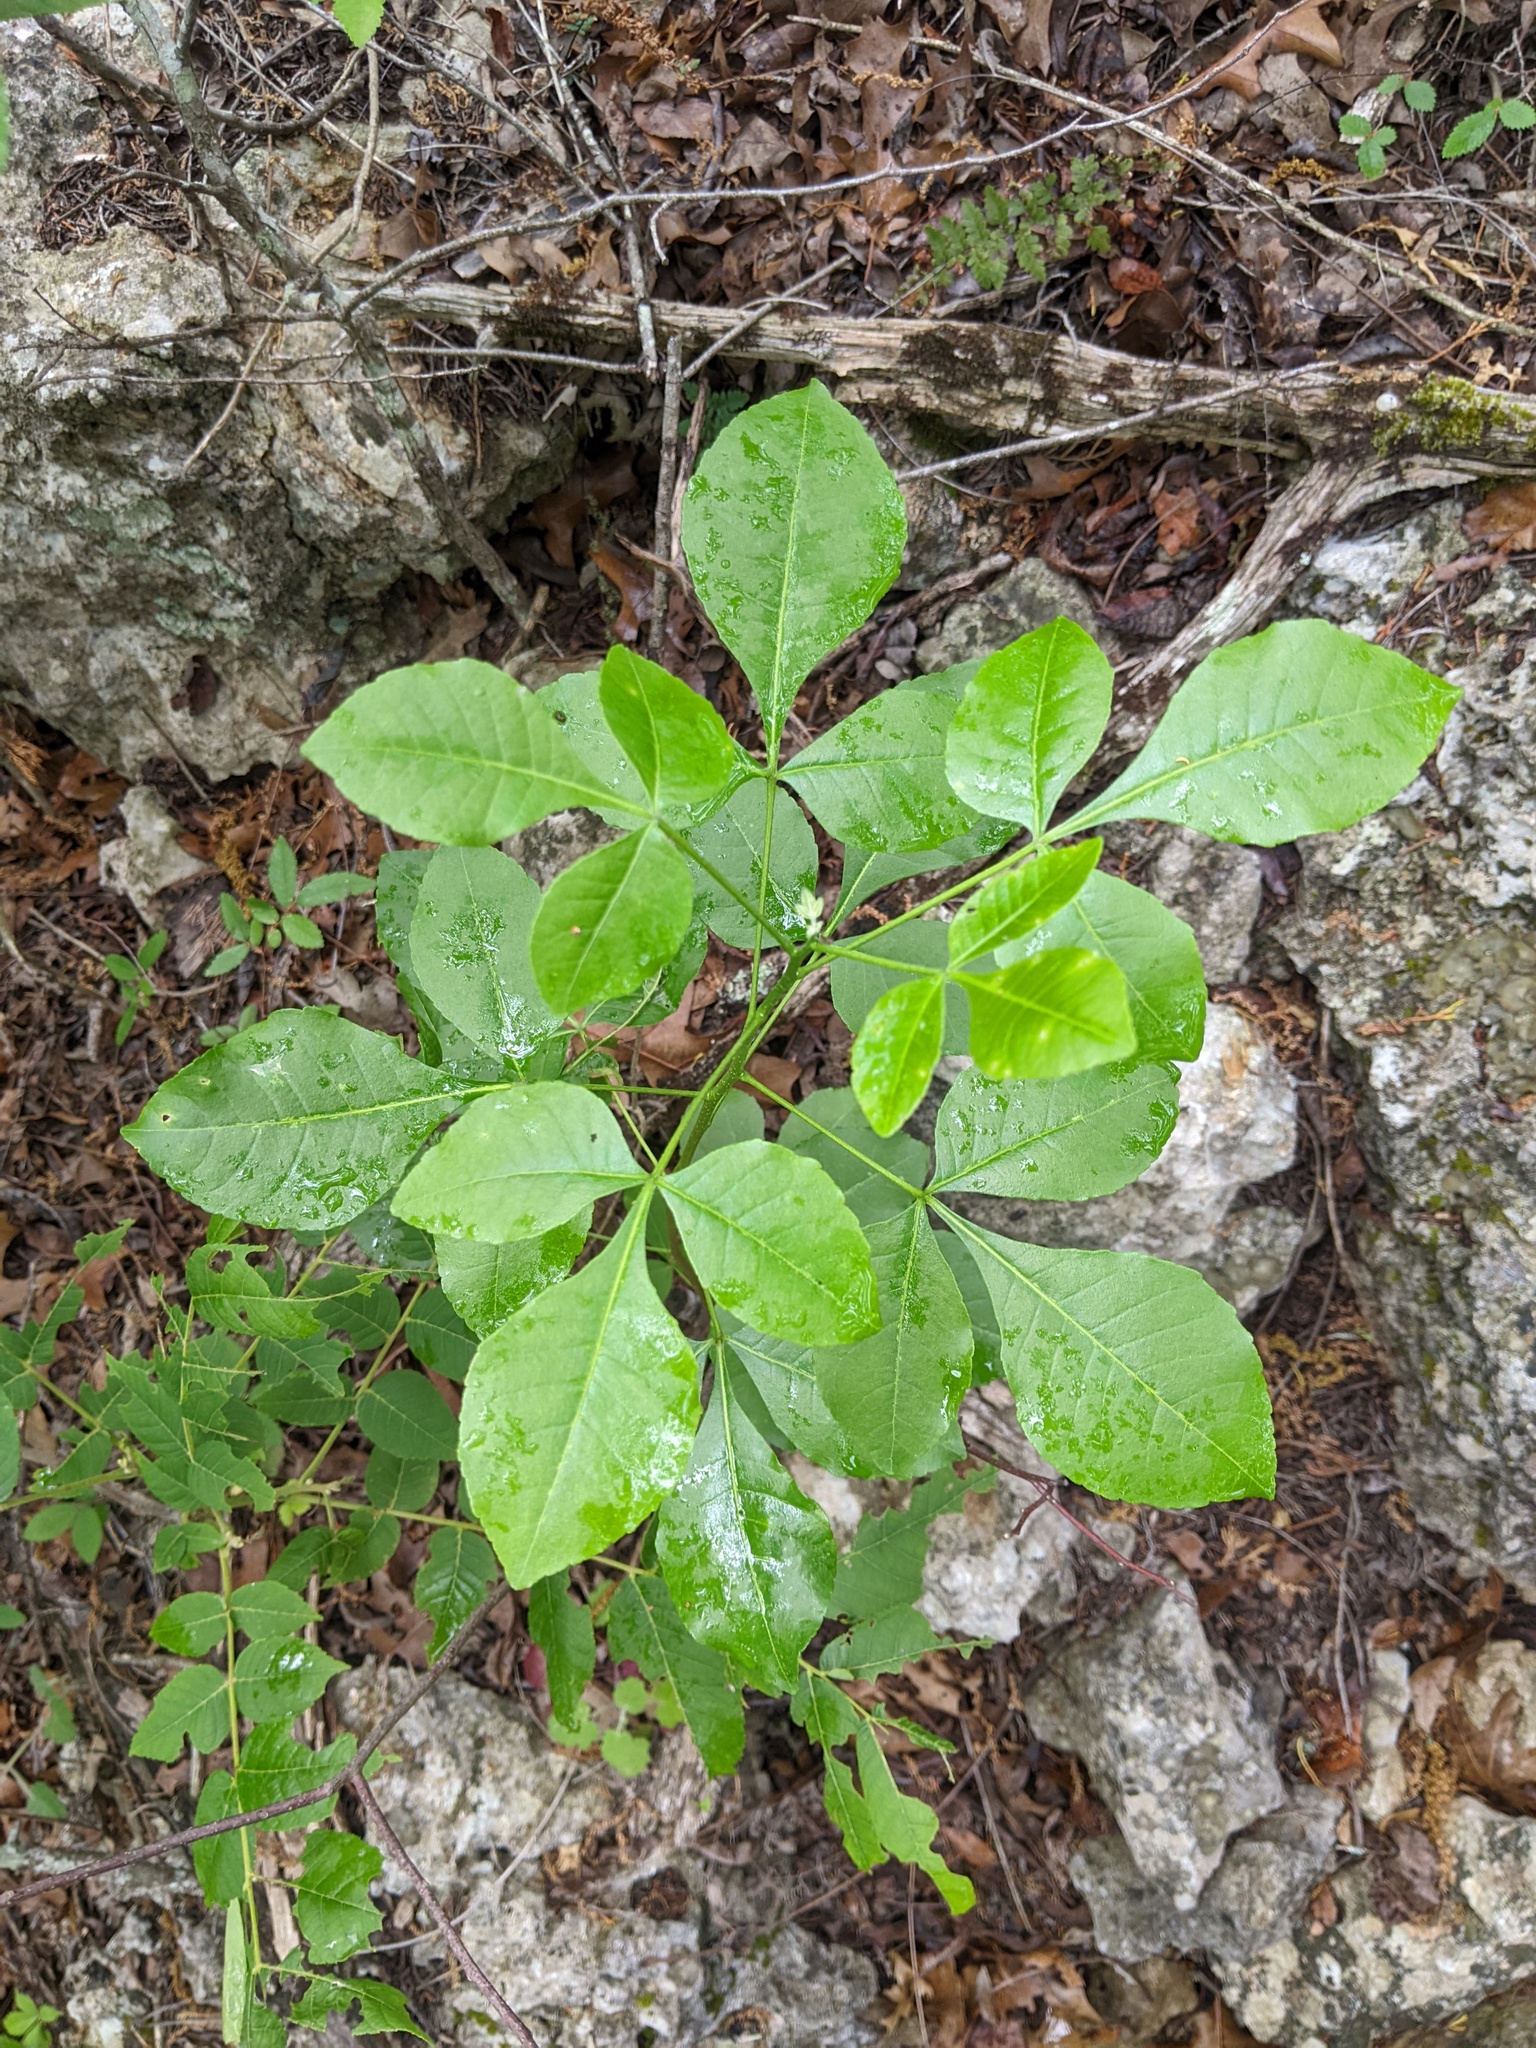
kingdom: Plantae
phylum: Tracheophyta
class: Magnoliopsida
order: Sapindales
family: Rutaceae
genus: Ptelea
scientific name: Ptelea trifoliata
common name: Common hop-tree
